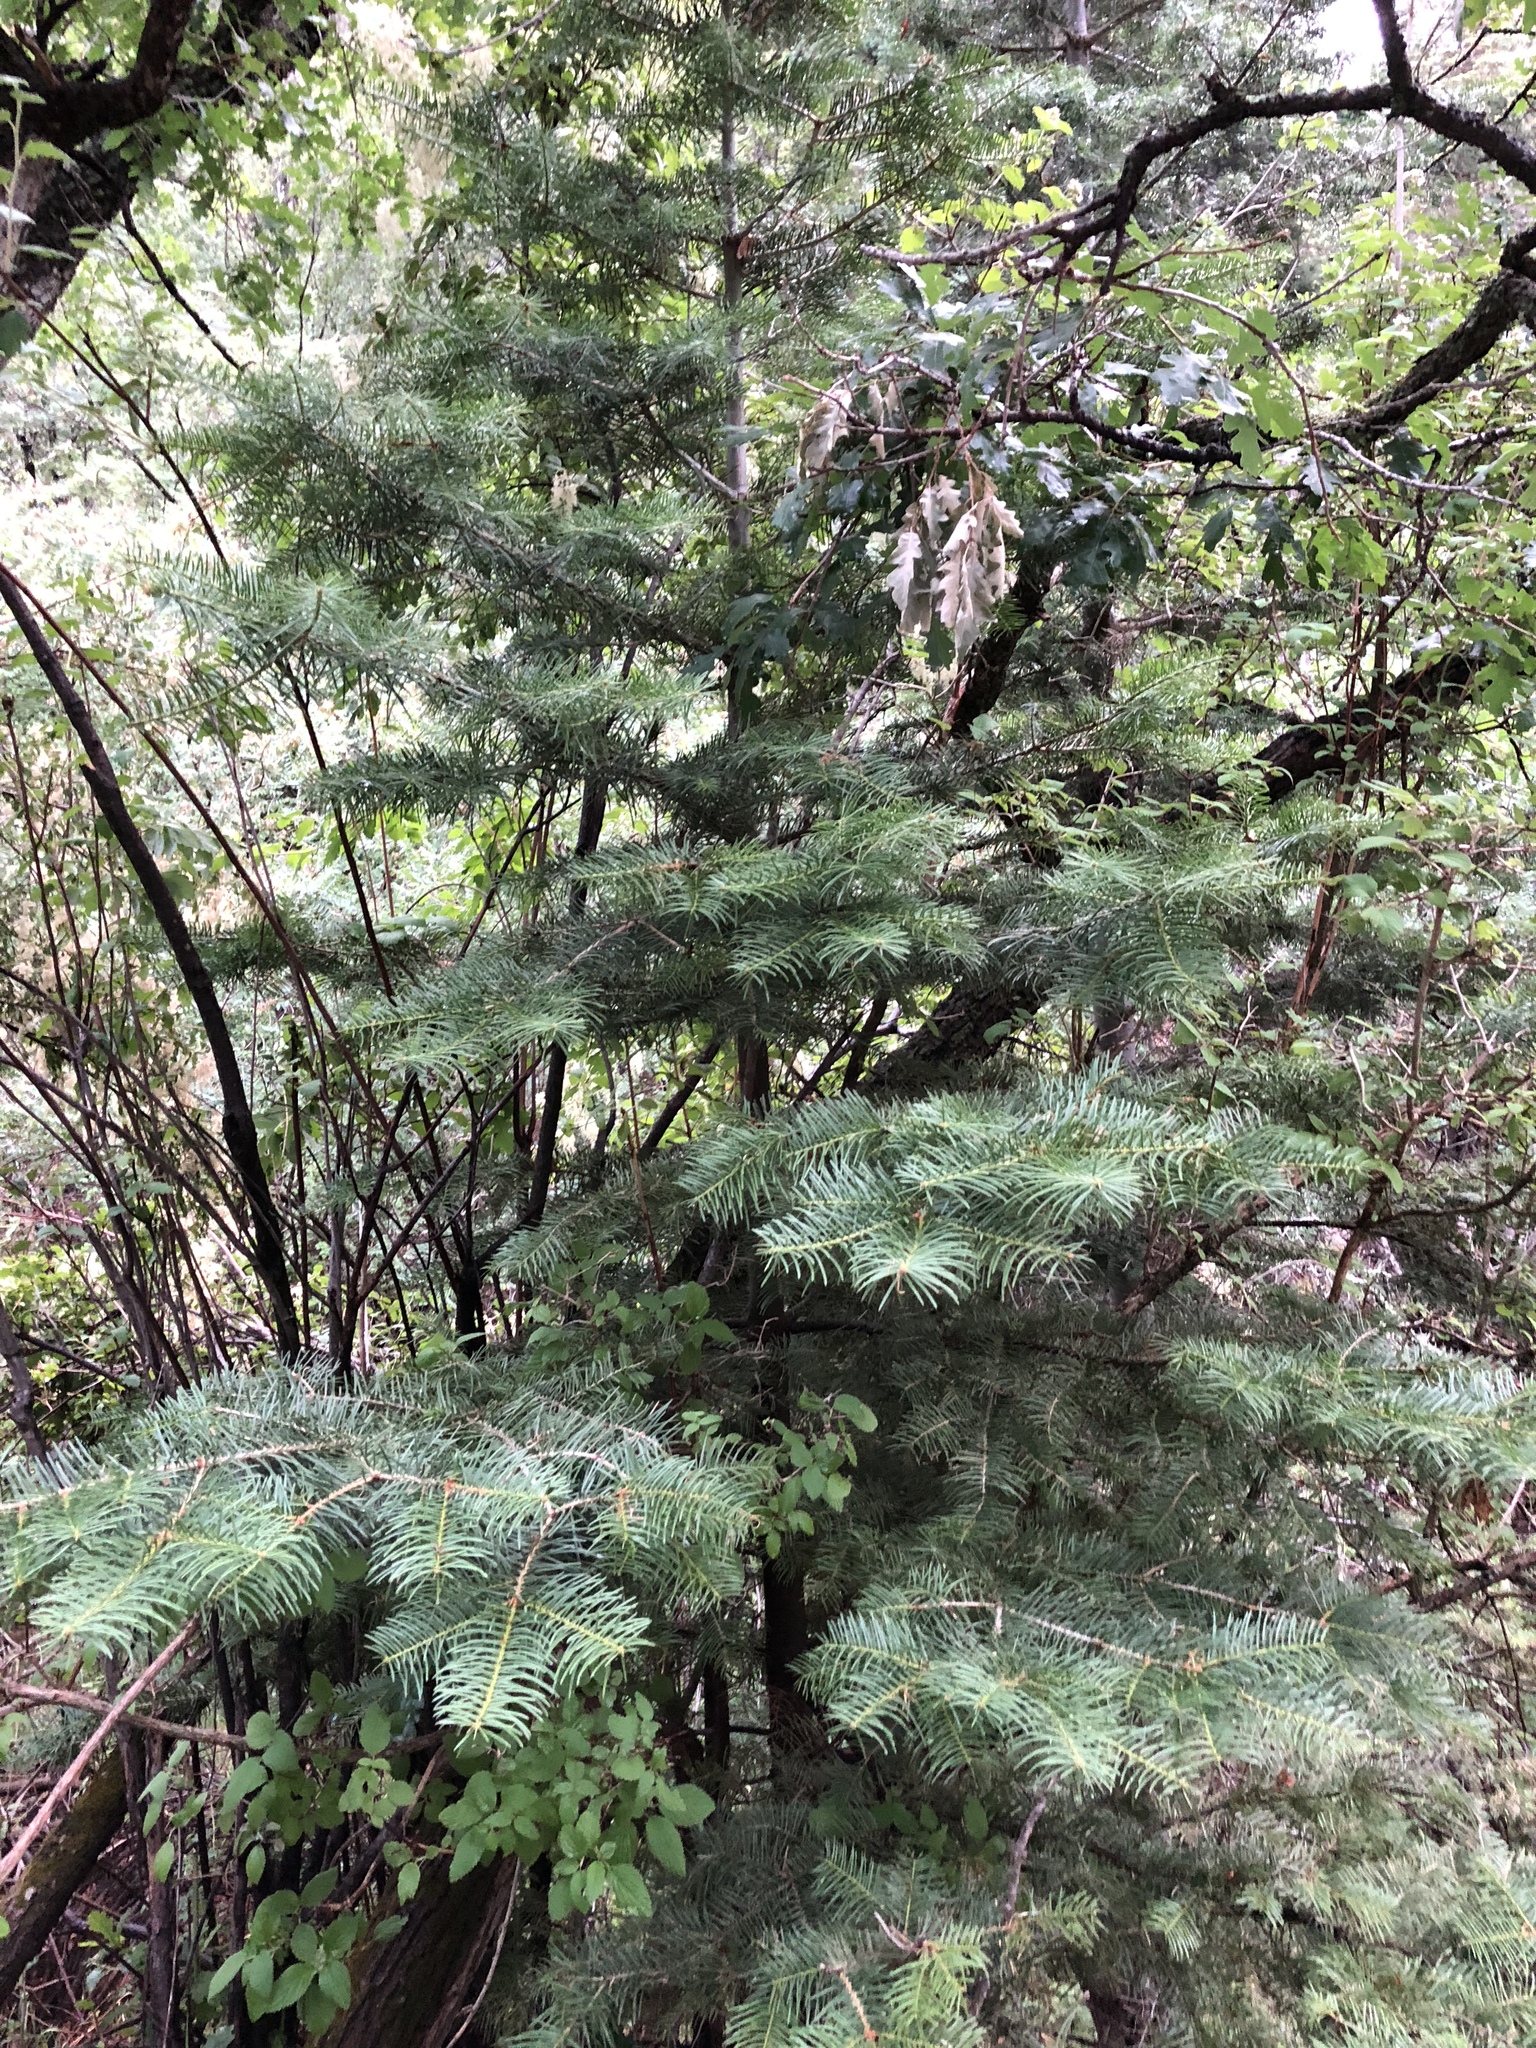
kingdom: Plantae
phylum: Tracheophyta
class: Pinopsida
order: Pinales
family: Pinaceae
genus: Abies
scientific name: Abies concolor
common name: Colorado fir
